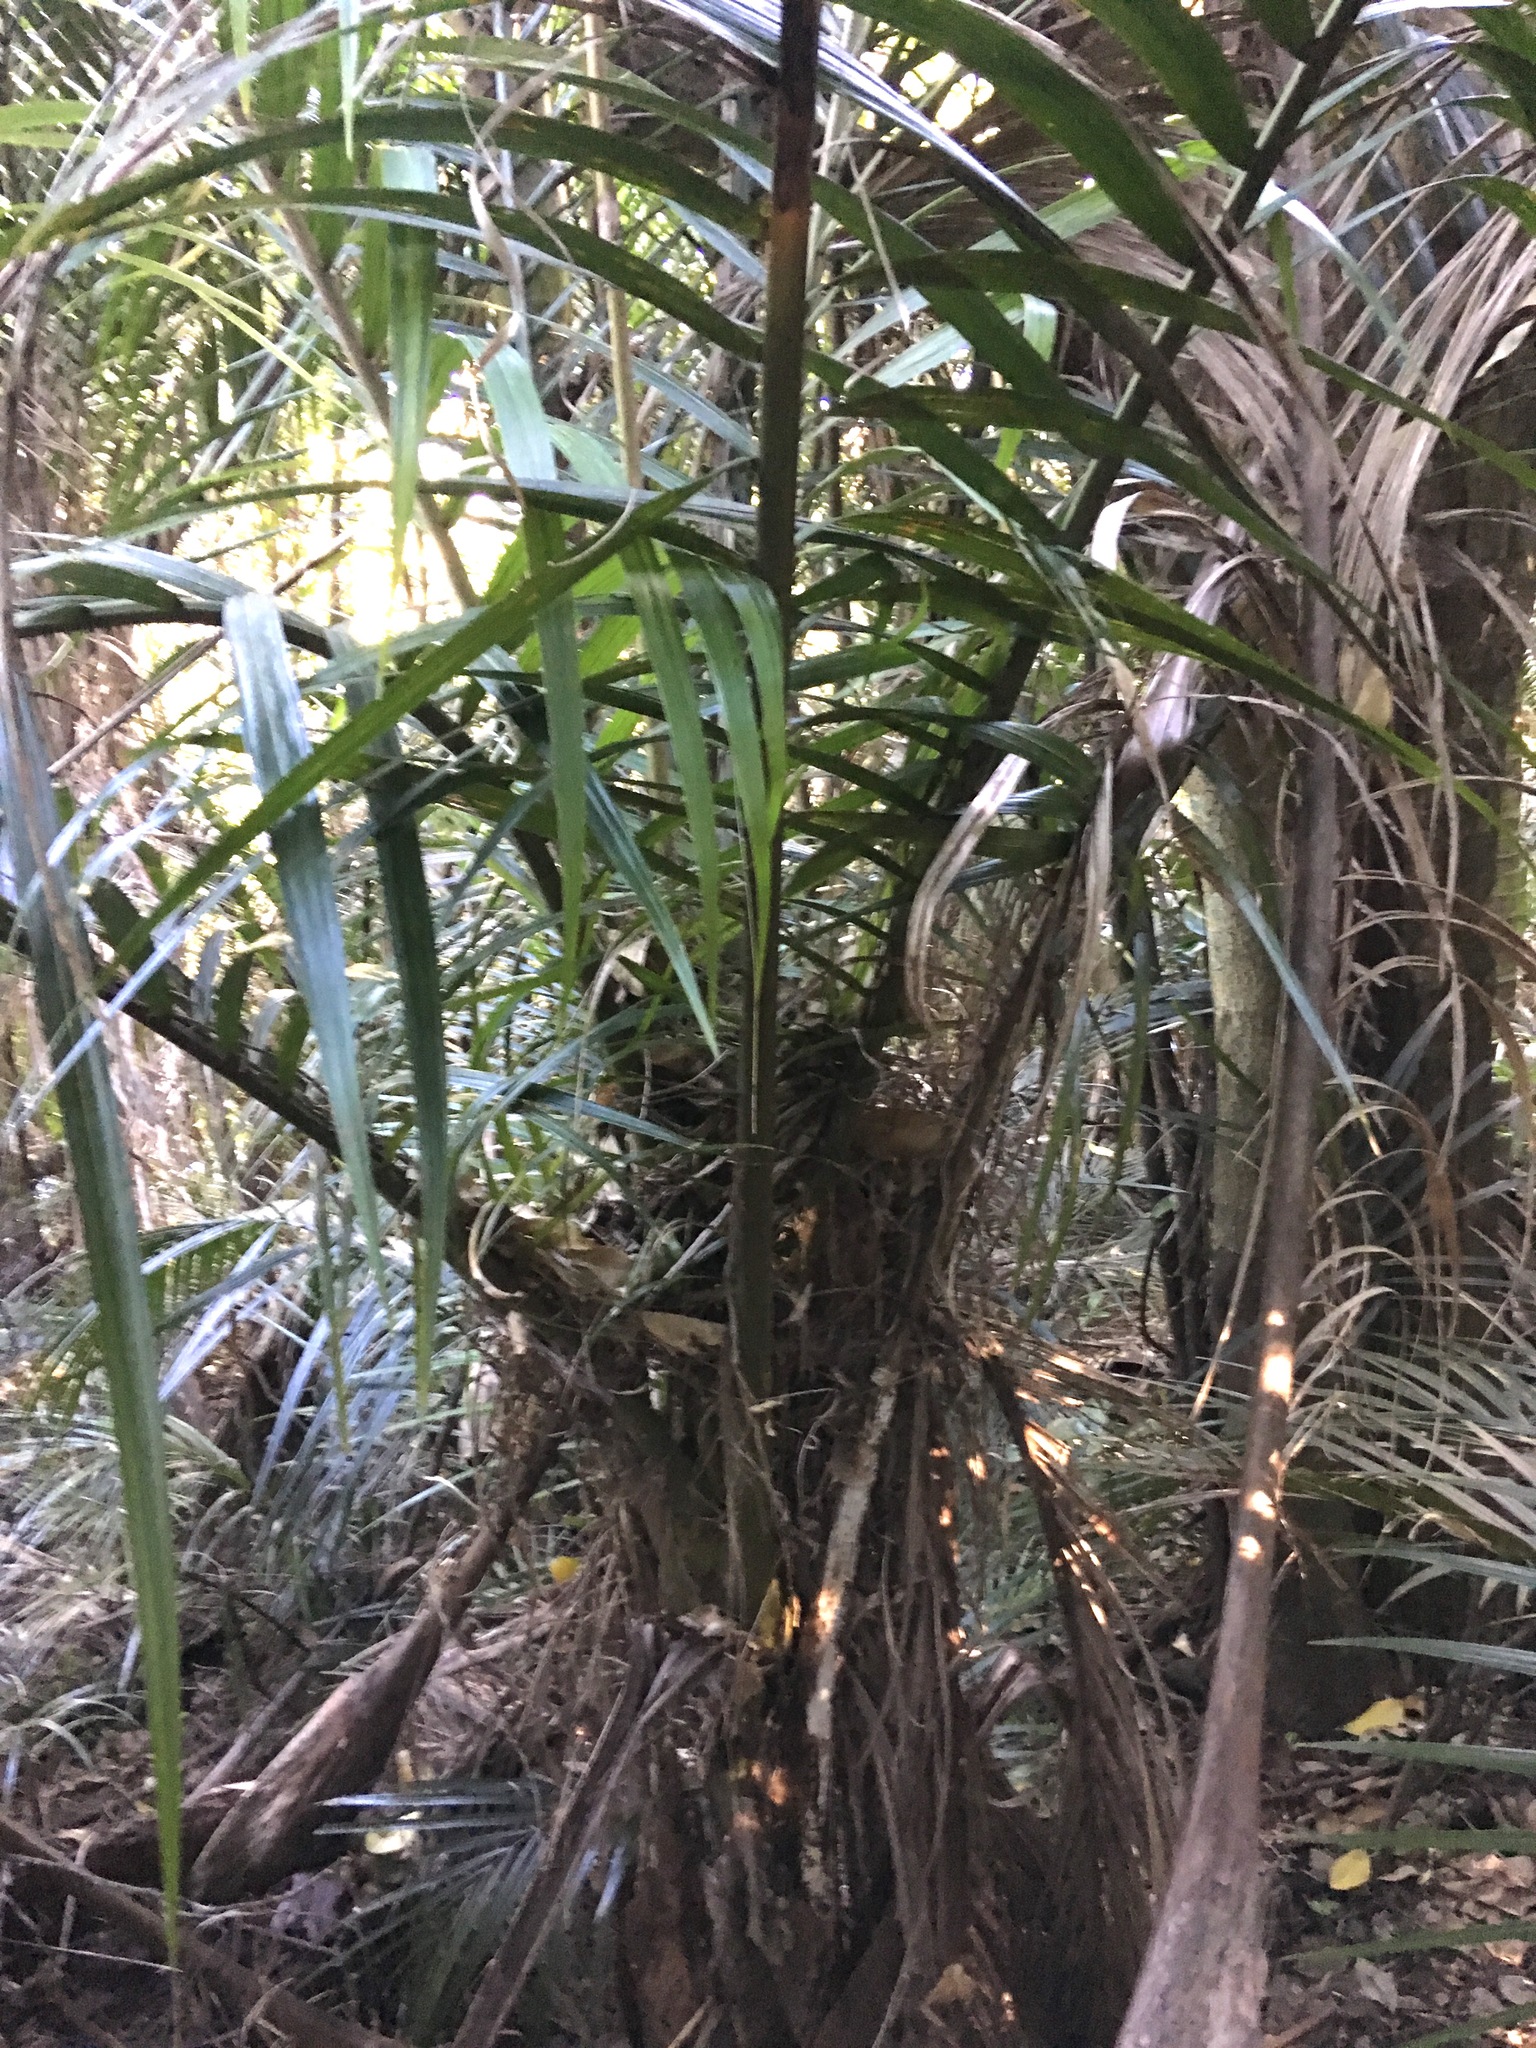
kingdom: Plantae
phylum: Tracheophyta
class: Liliopsida
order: Arecales
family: Arecaceae
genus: Rhopalostylis
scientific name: Rhopalostylis sapida
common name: Feather-duster palm
